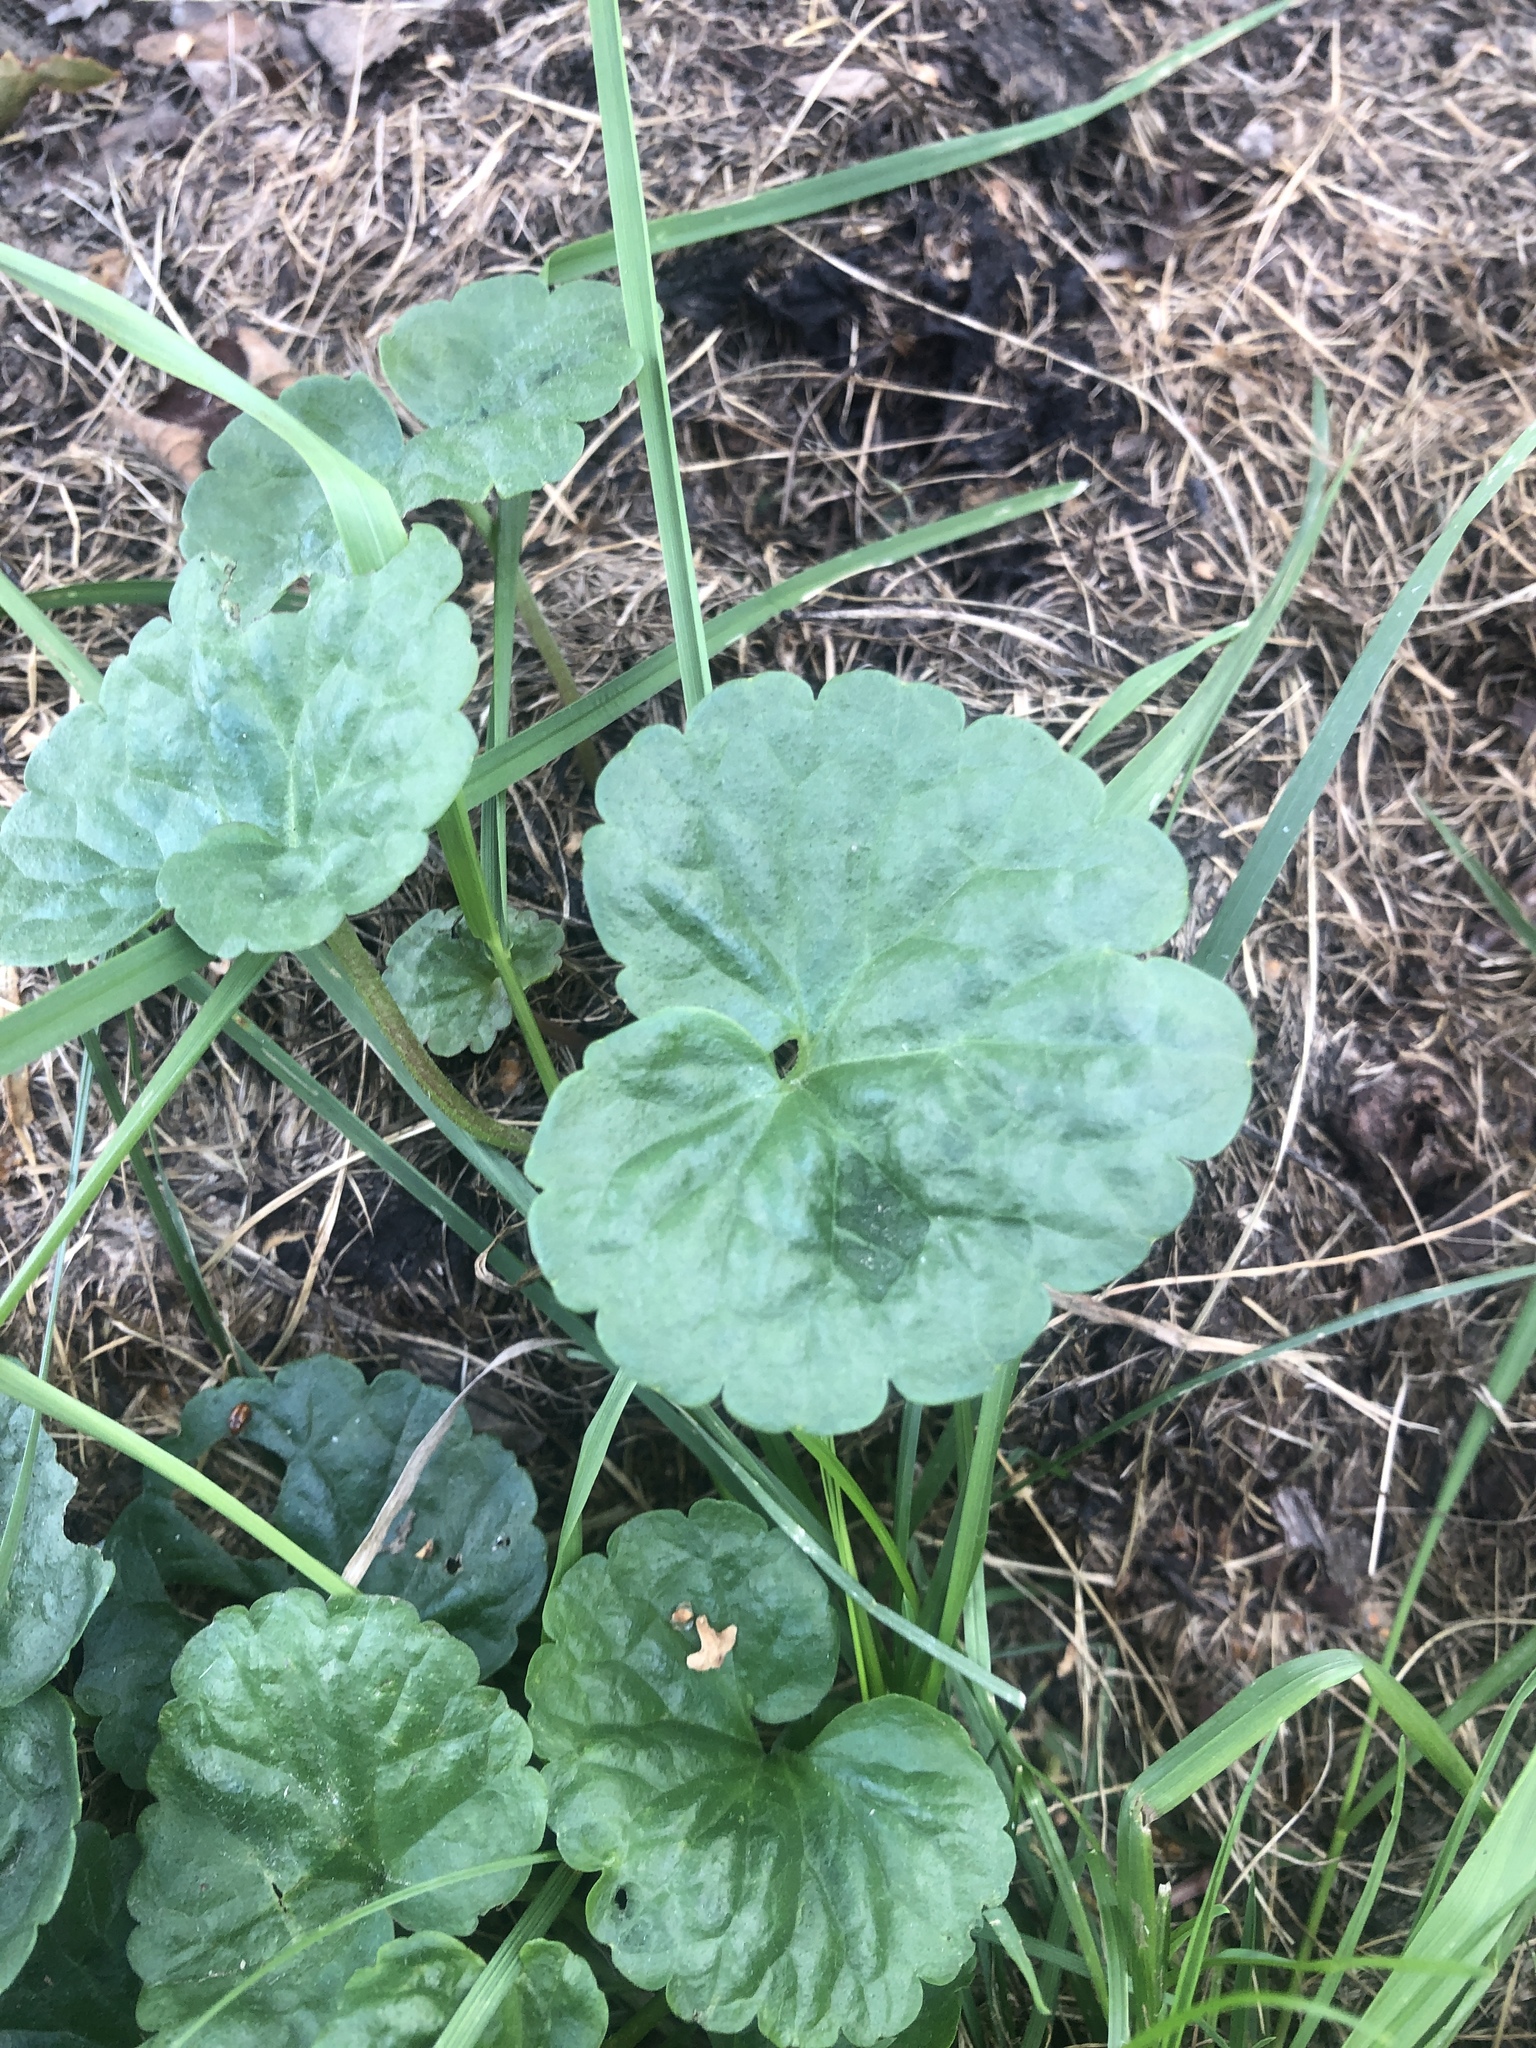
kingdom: Plantae
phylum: Tracheophyta
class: Magnoliopsida
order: Lamiales
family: Lamiaceae
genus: Glechoma
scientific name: Glechoma hederacea
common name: Ground ivy
